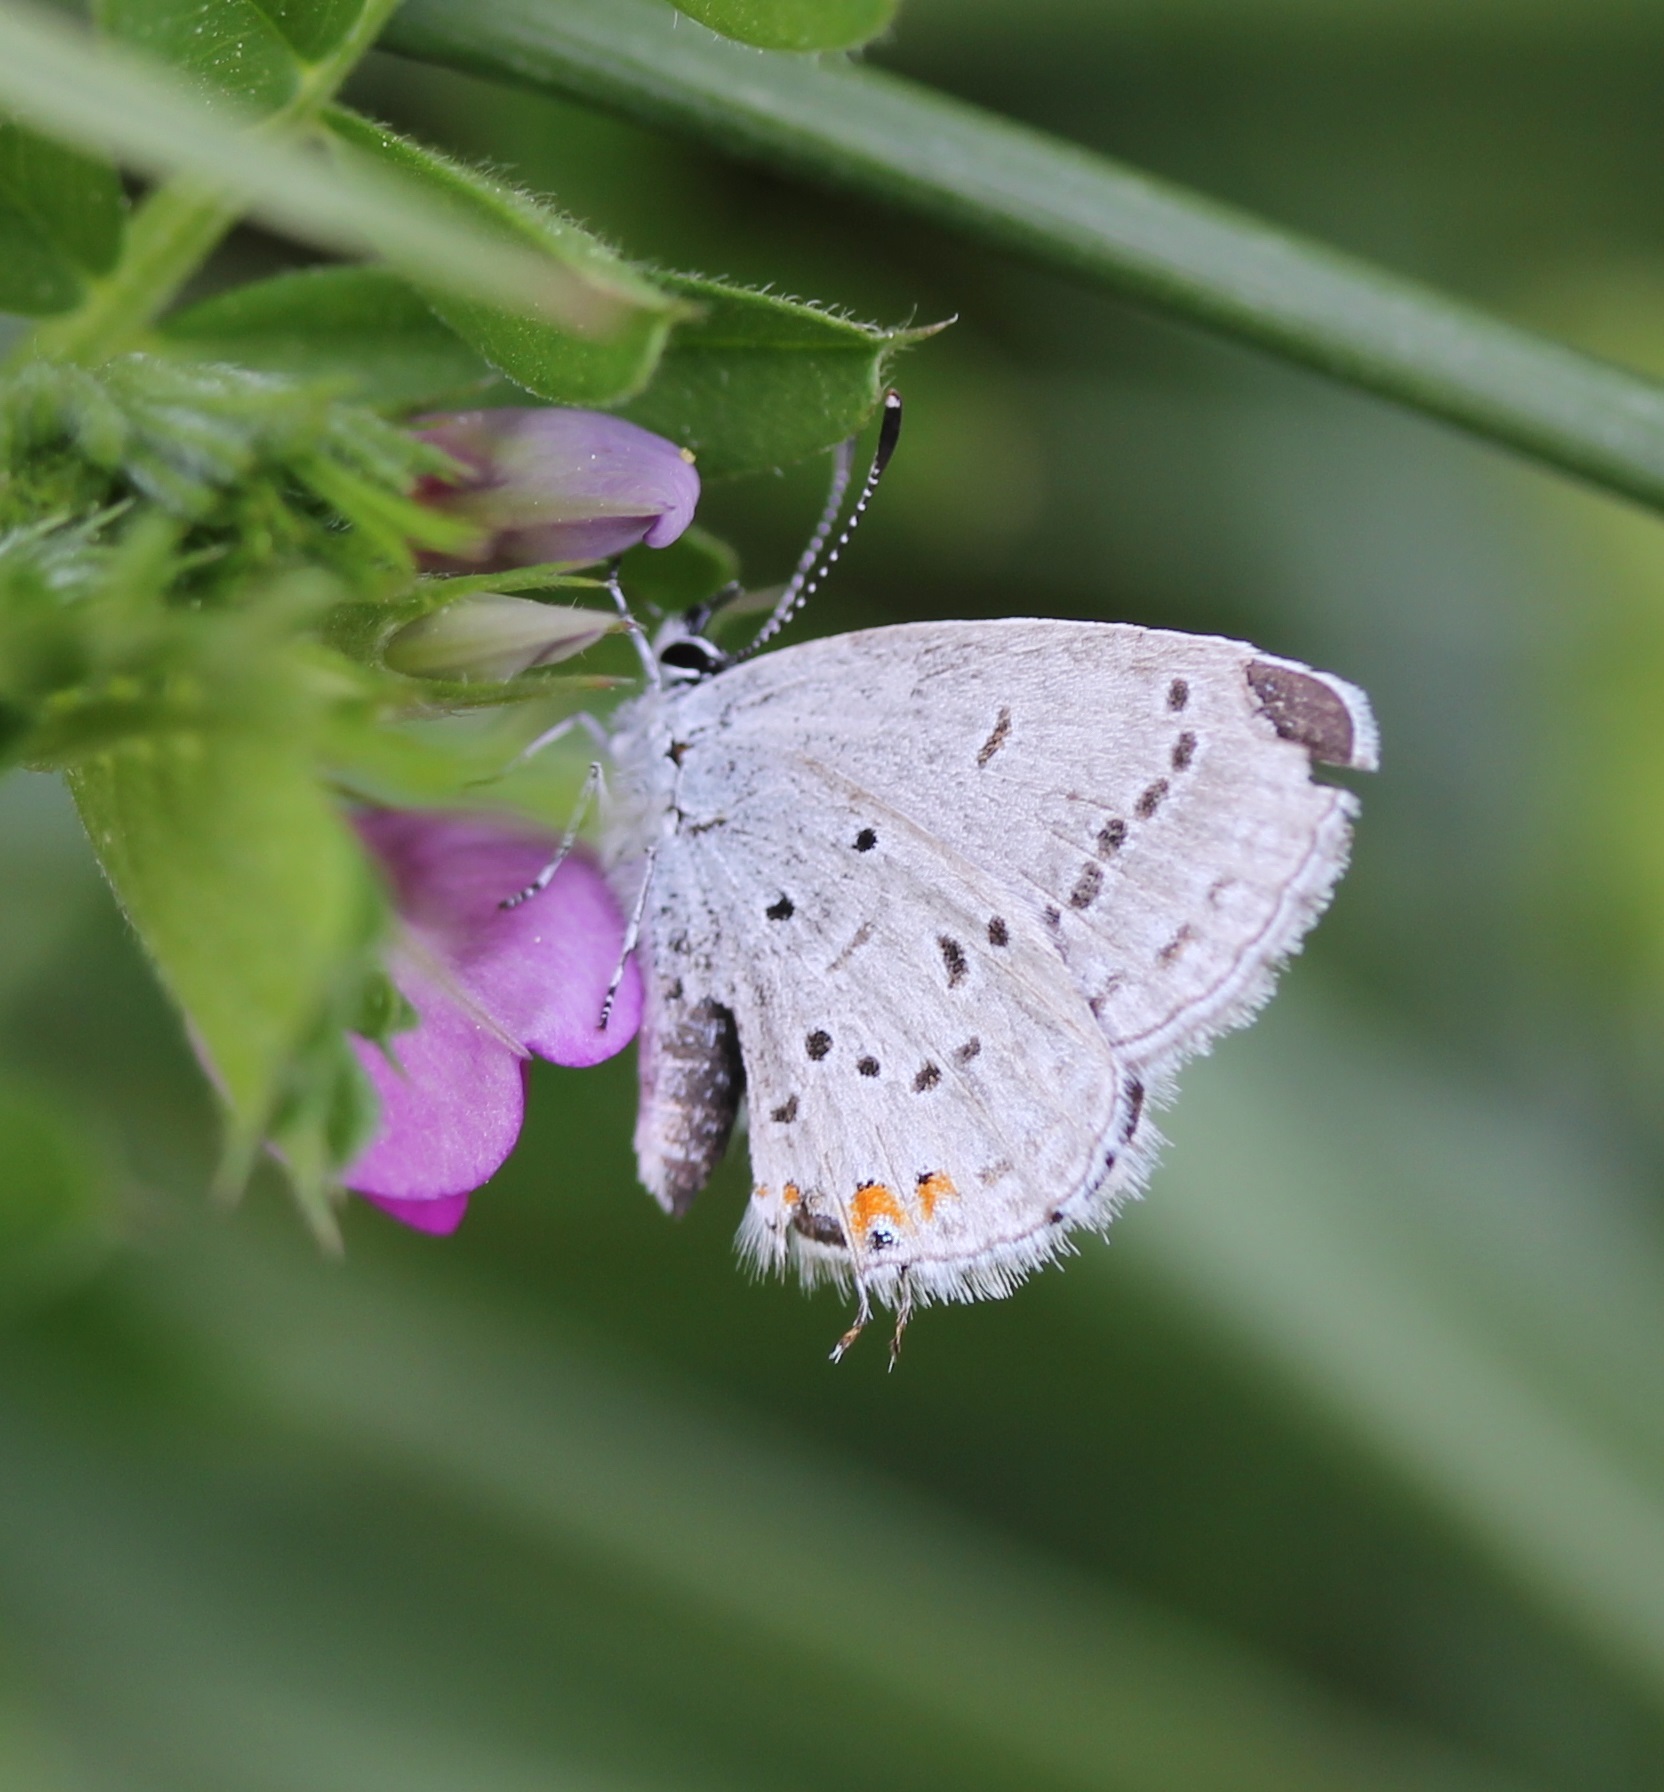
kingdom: Animalia
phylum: Arthropoda
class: Insecta
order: Lepidoptera
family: Lycaenidae
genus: Elkalyce
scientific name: Elkalyce comyntas
